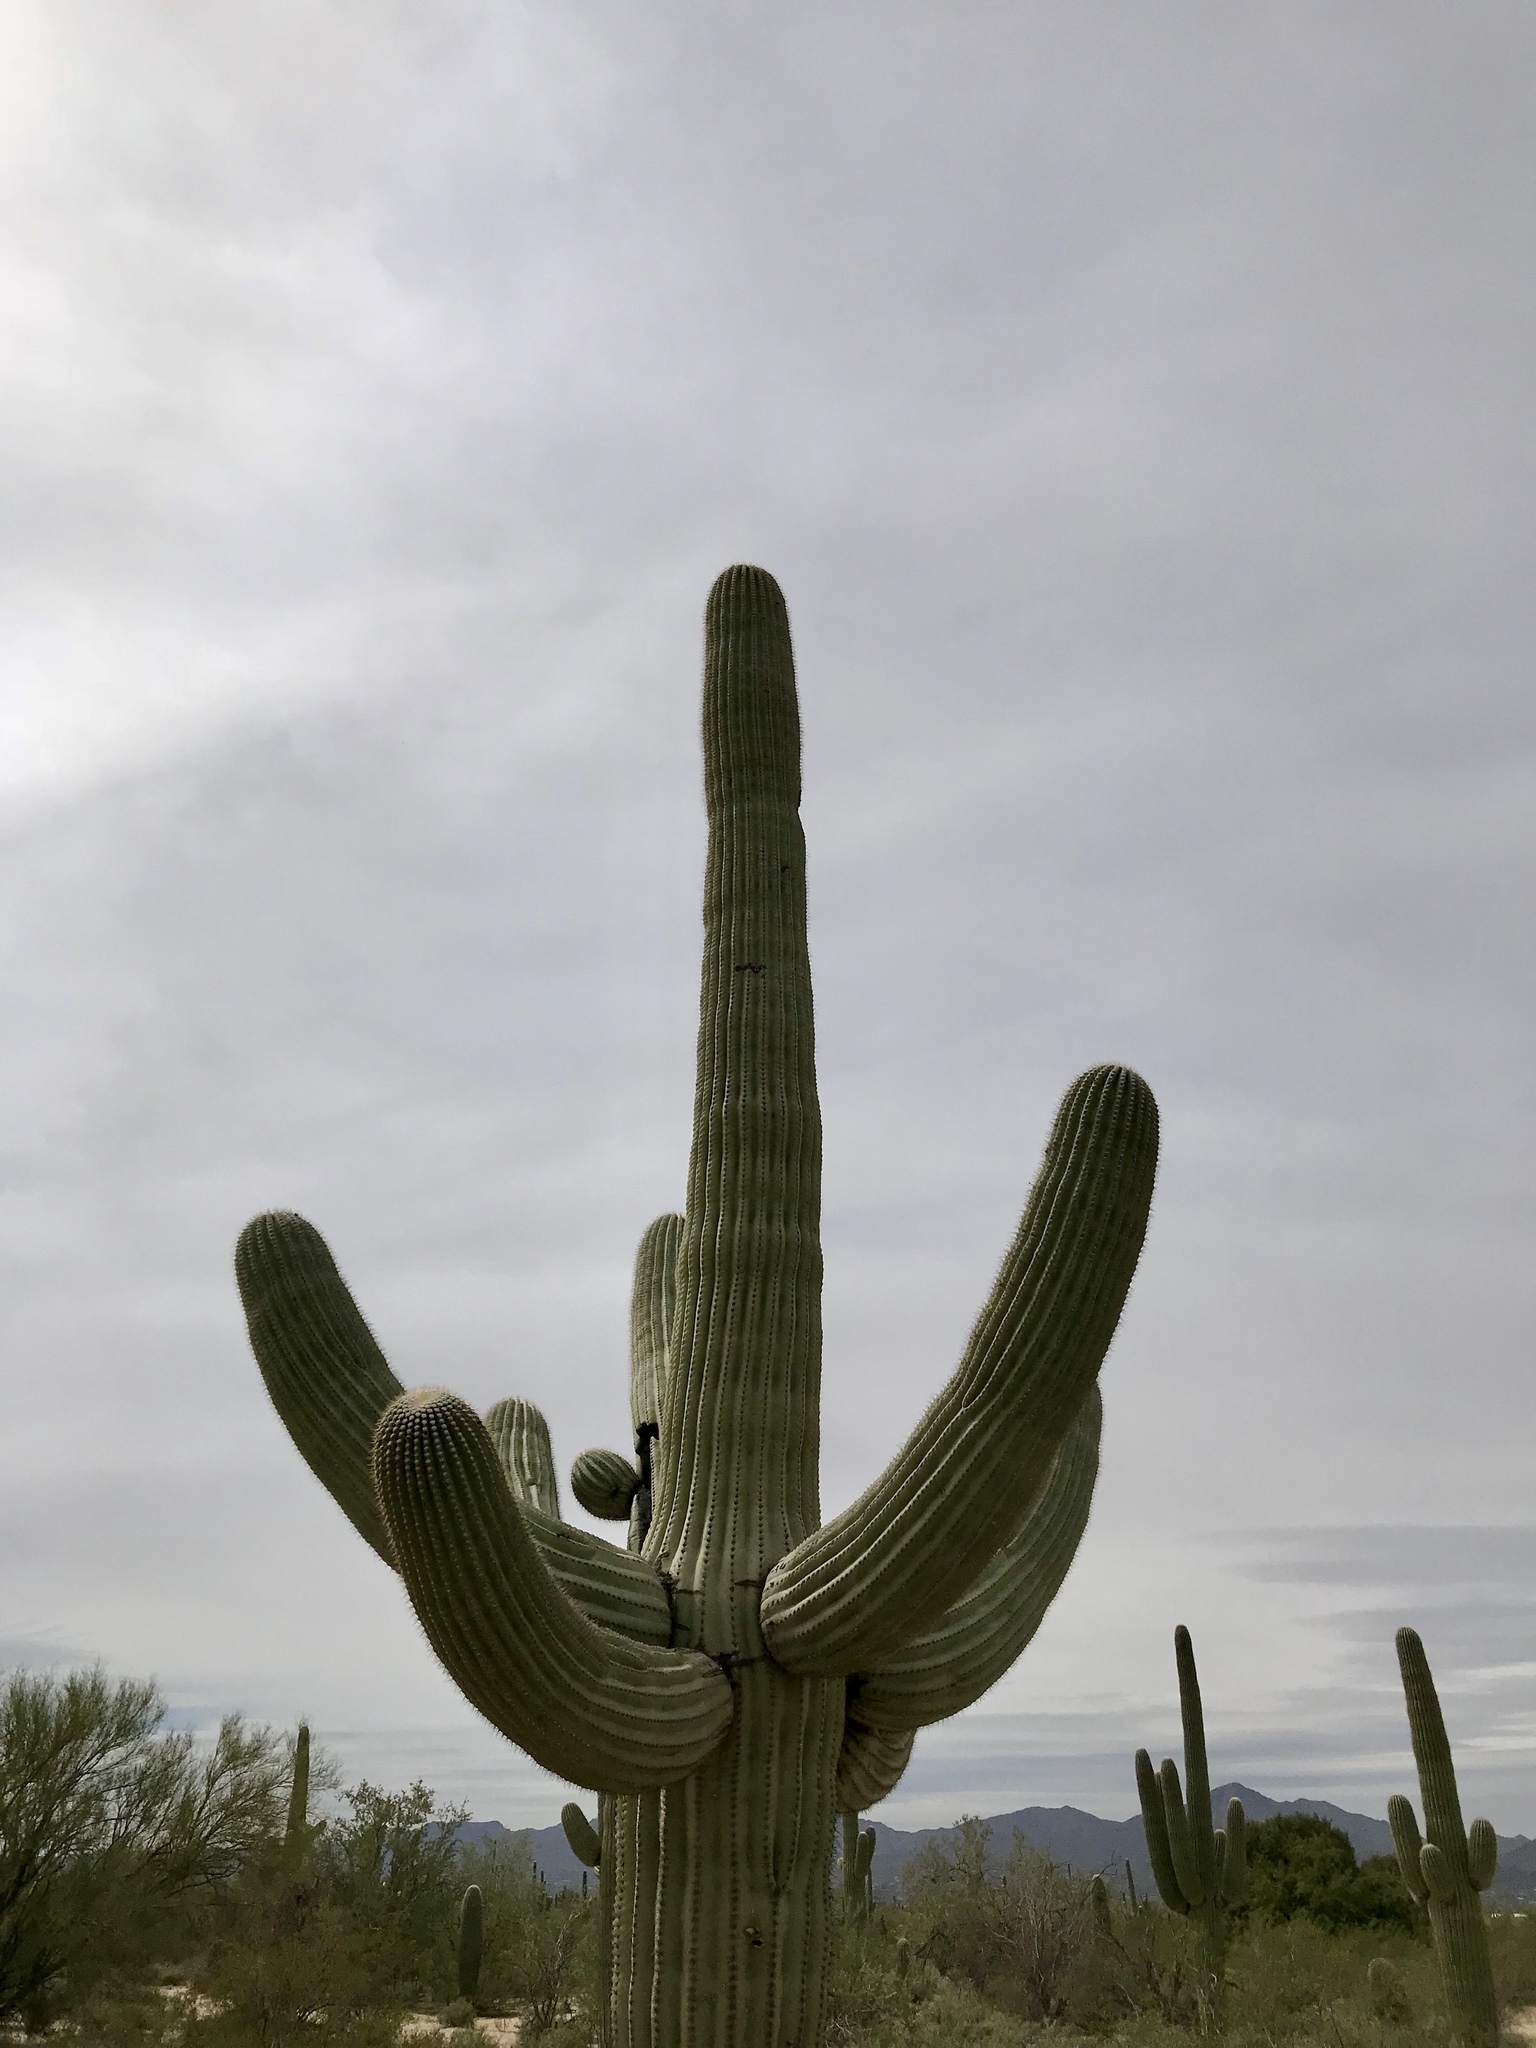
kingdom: Plantae
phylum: Tracheophyta
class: Magnoliopsida
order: Caryophyllales
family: Cactaceae
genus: Carnegiea
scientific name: Carnegiea gigantea
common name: Saguaro
